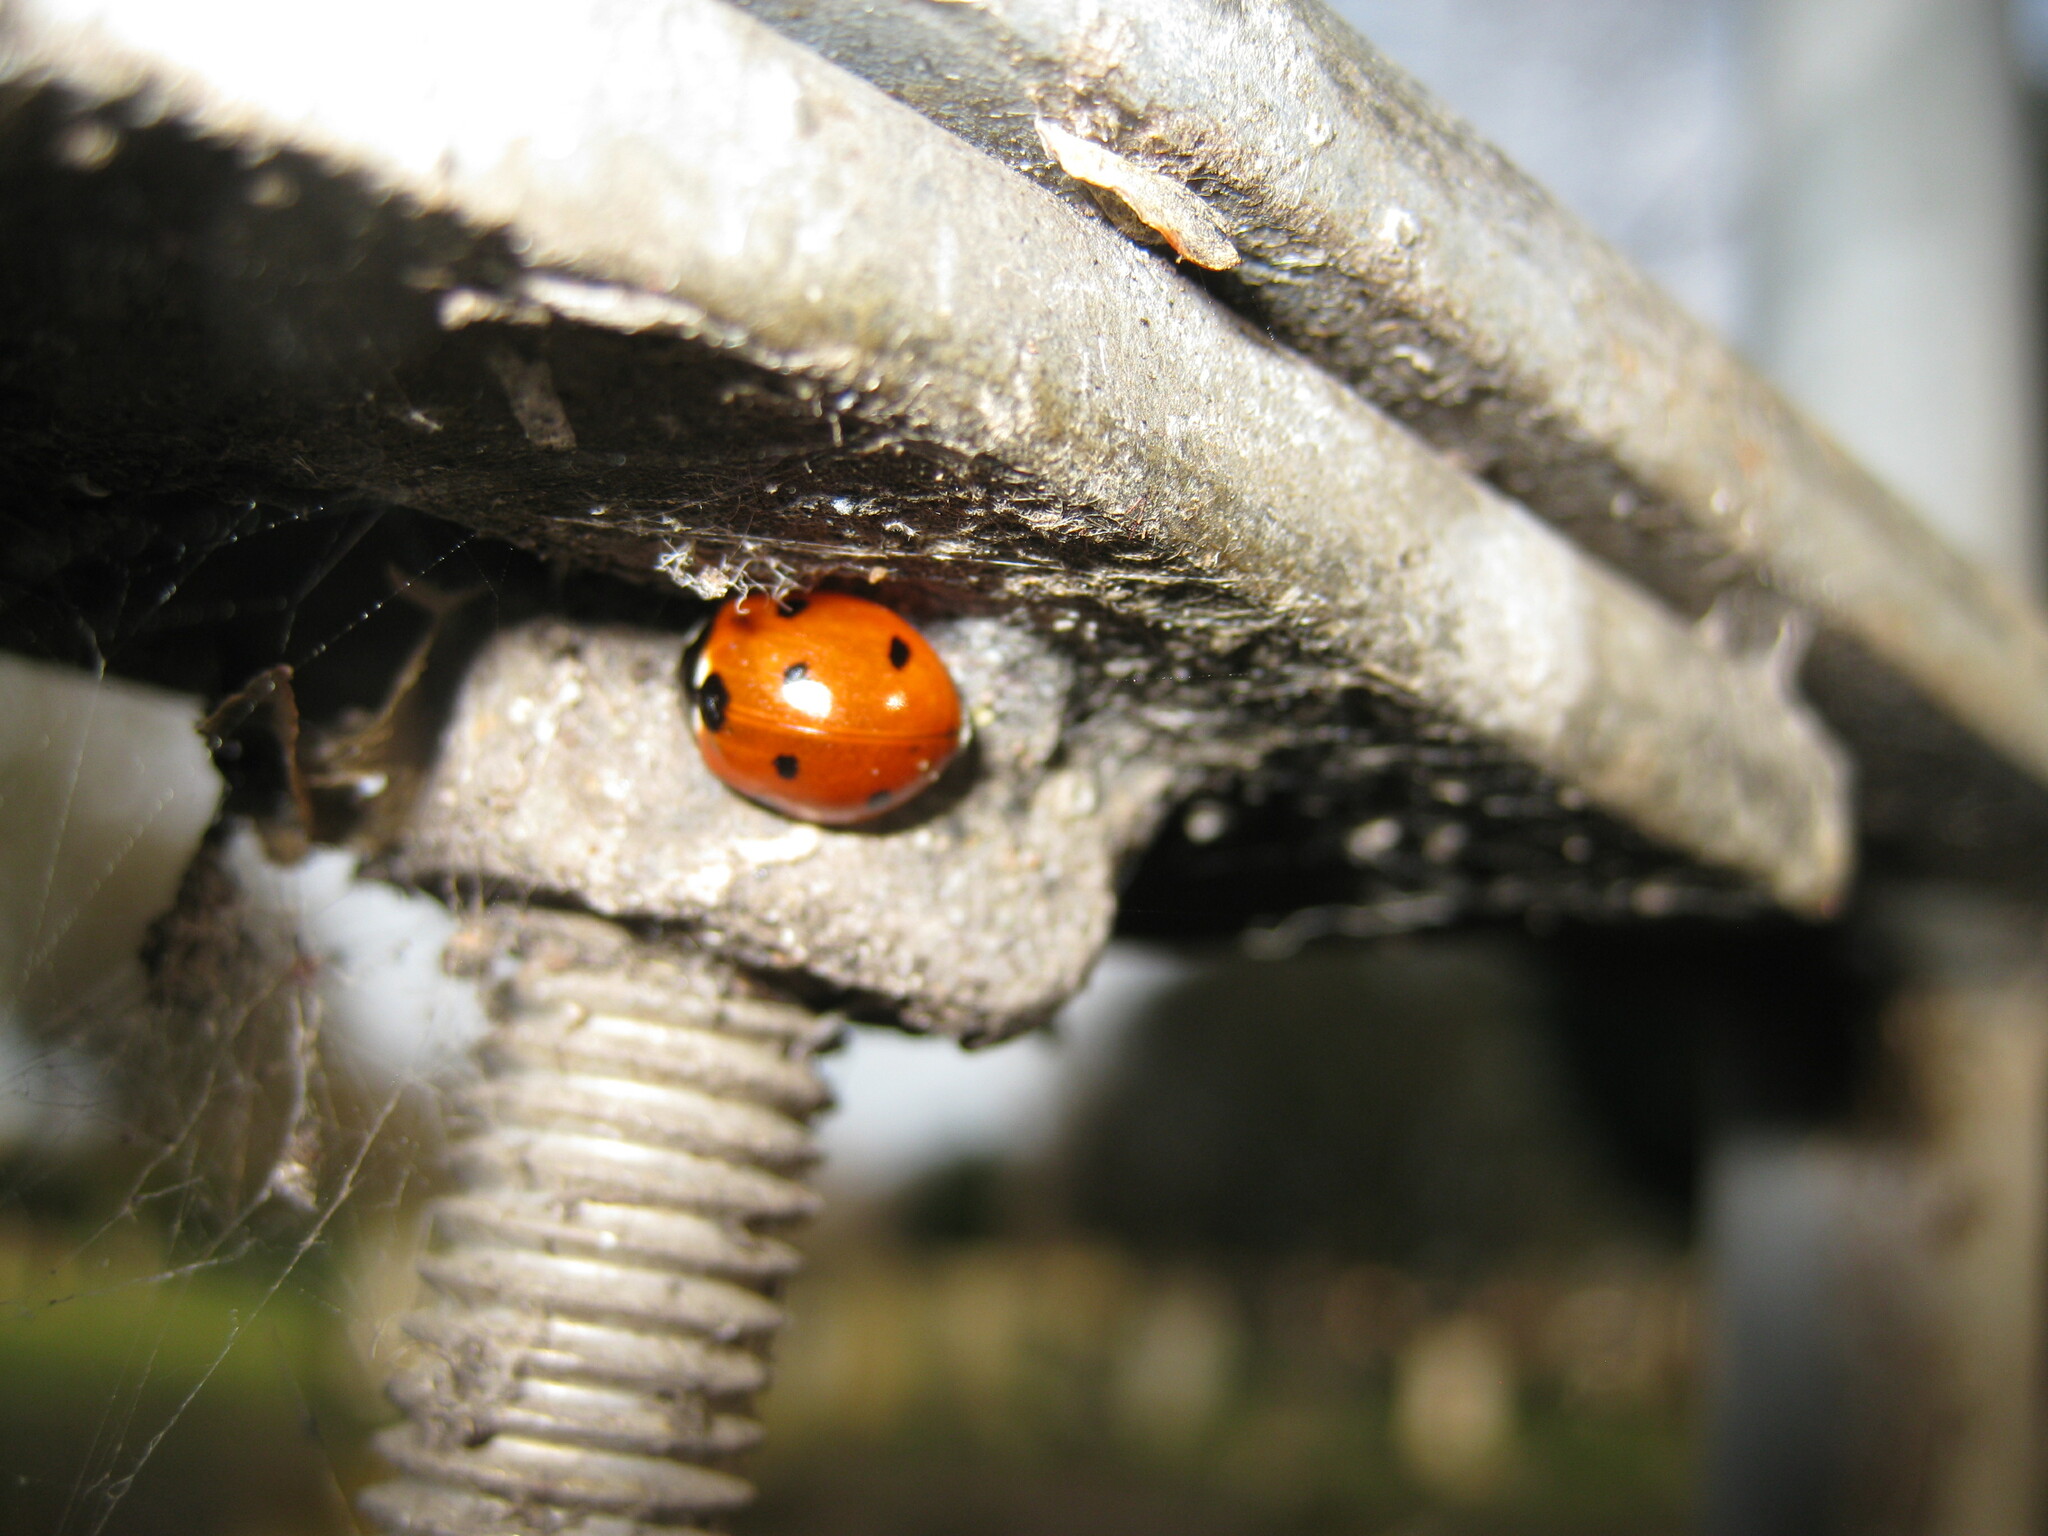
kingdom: Animalia
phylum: Arthropoda
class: Insecta
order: Coleoptera
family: Coccinellidae
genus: Coccinella
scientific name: Coccinella septempunctata
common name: Sevenspotted lady beetle
